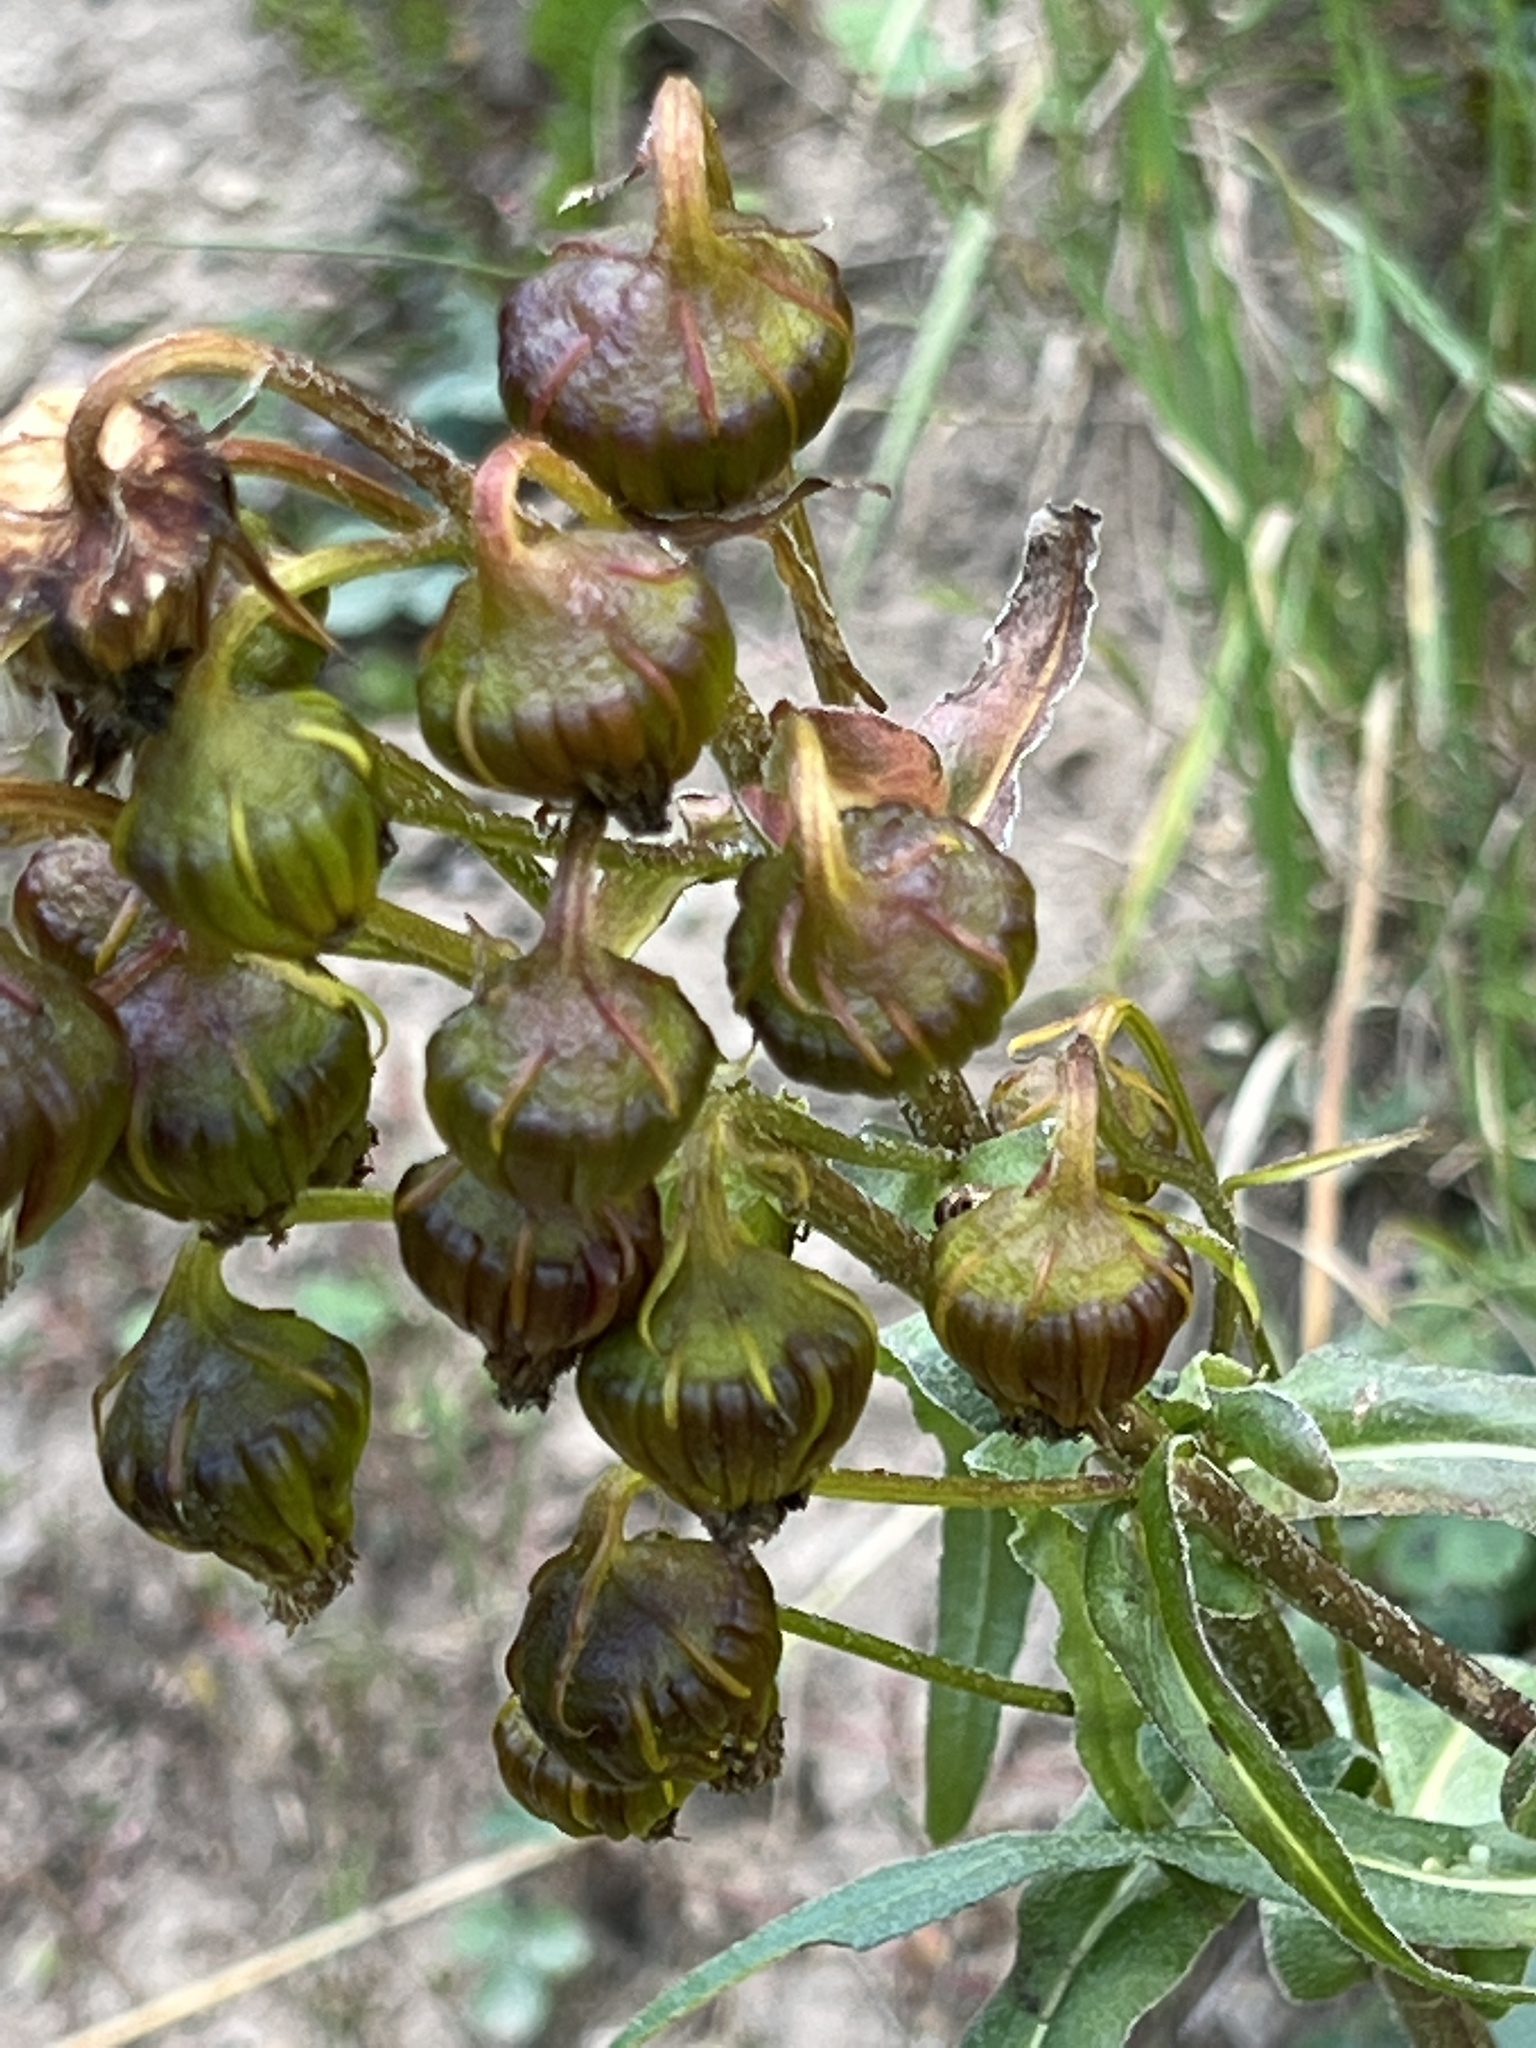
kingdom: Plantae
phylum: Tracheophyta
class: Magnoliopsida
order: Asterales
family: Asteraceae
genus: Senecio
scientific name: Senecio bigelovii
